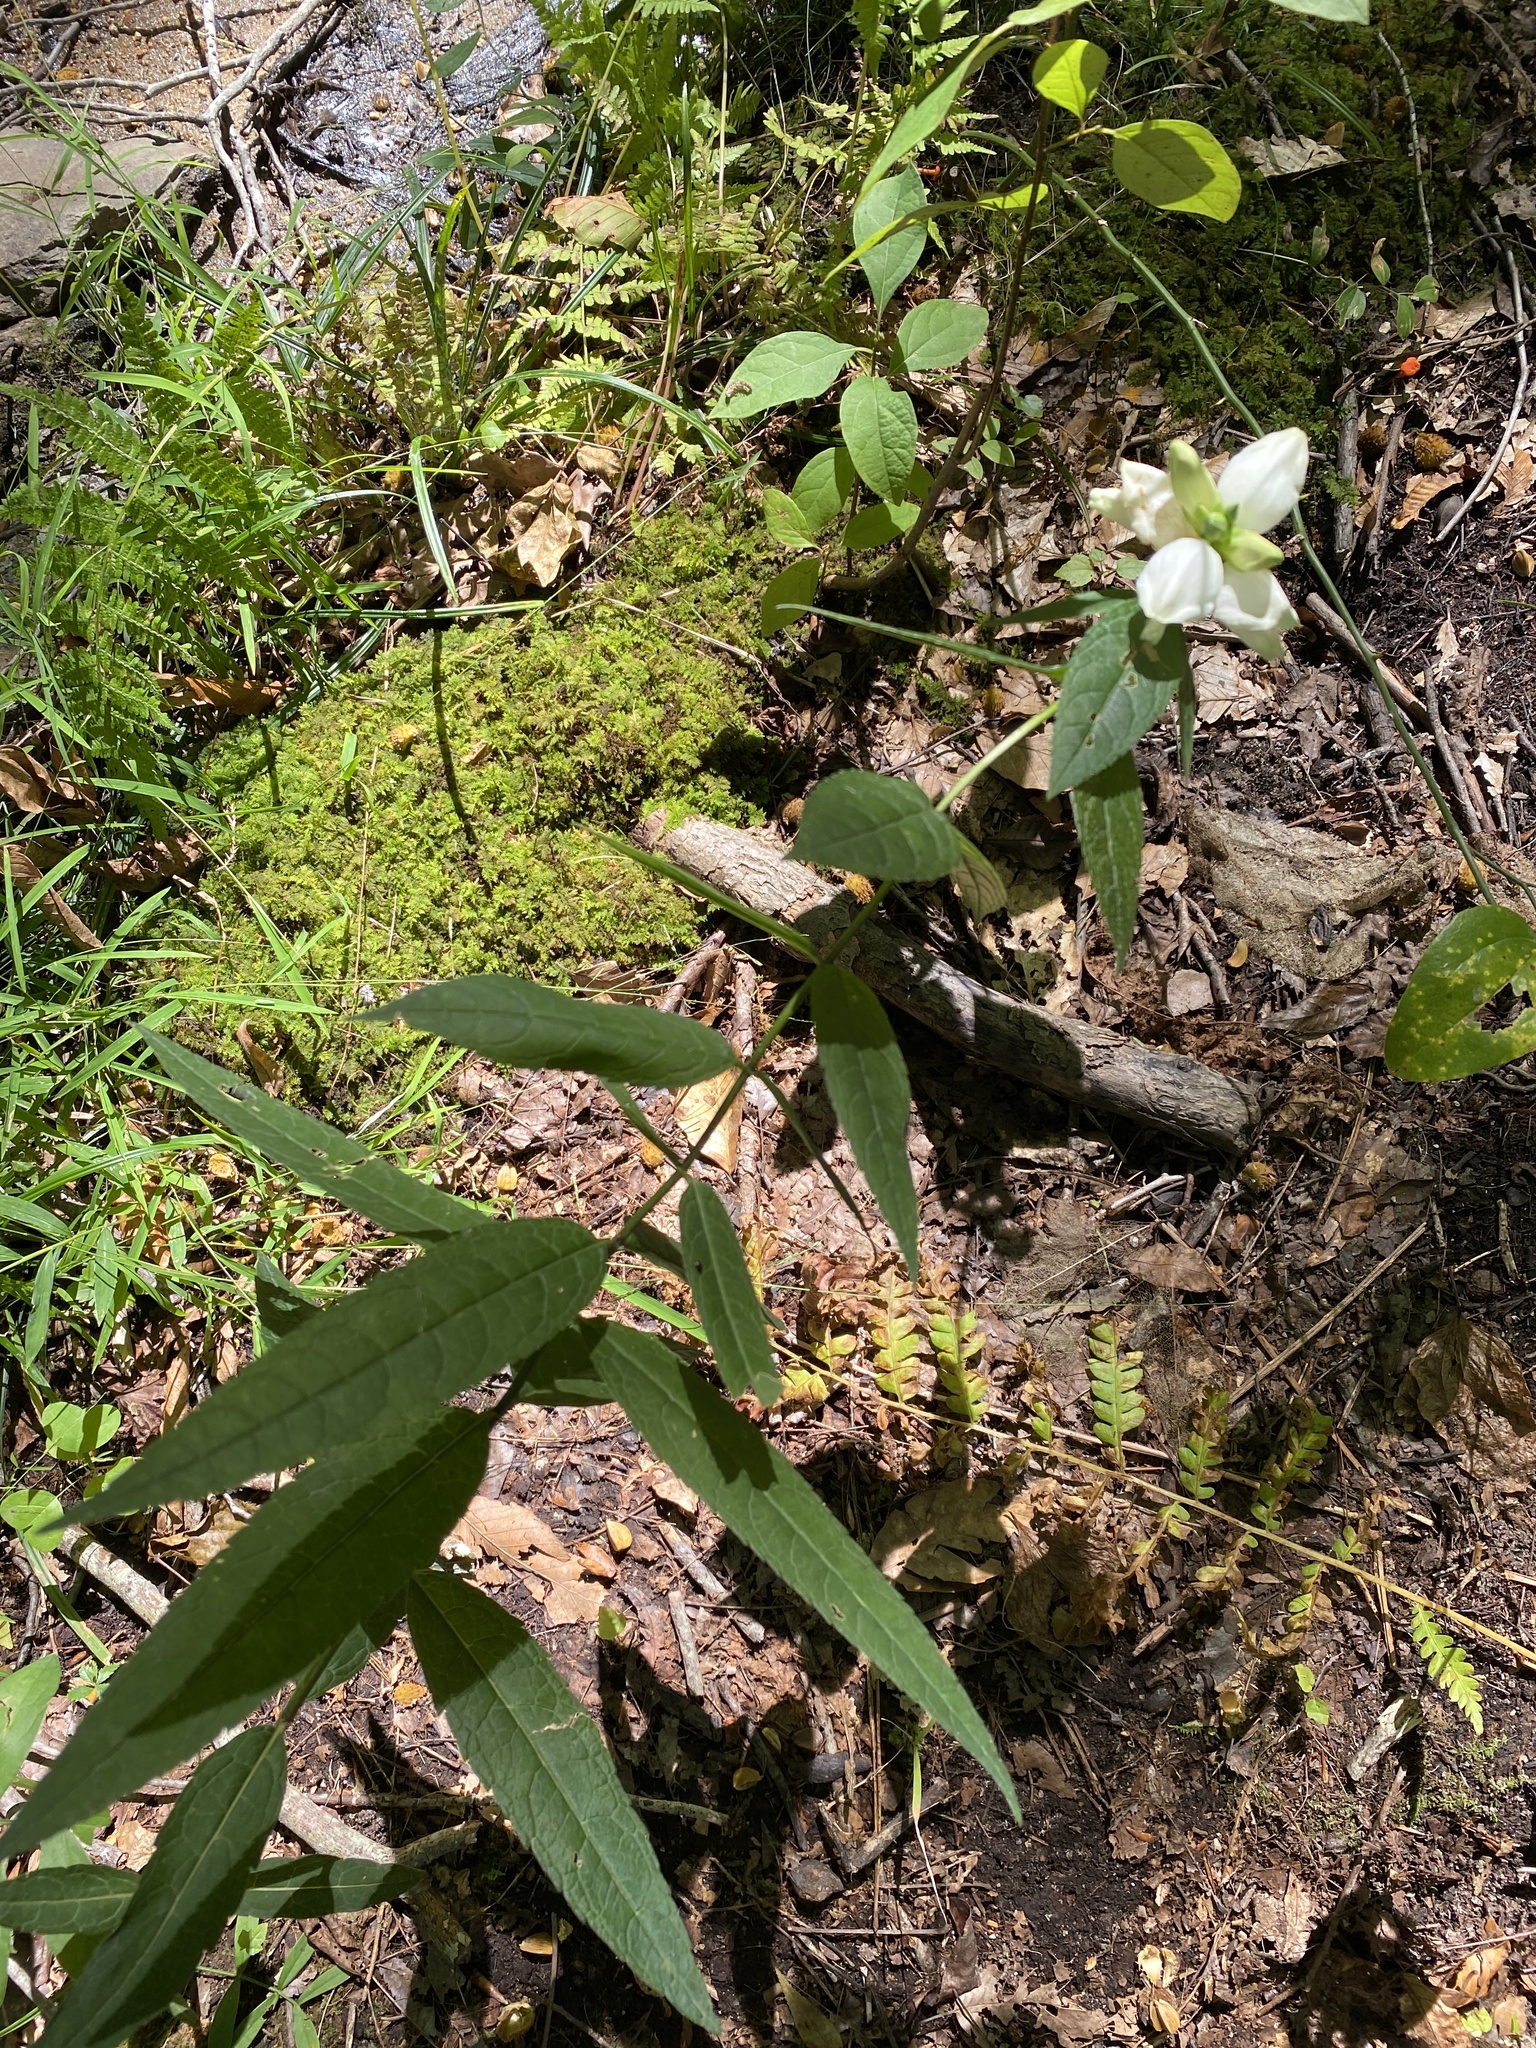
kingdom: Plantae
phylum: Tracheophyta
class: Magnoliopsida
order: Lamiales
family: Plantaginaceae
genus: Chelone
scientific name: Chelone glabra
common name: Snakehead
